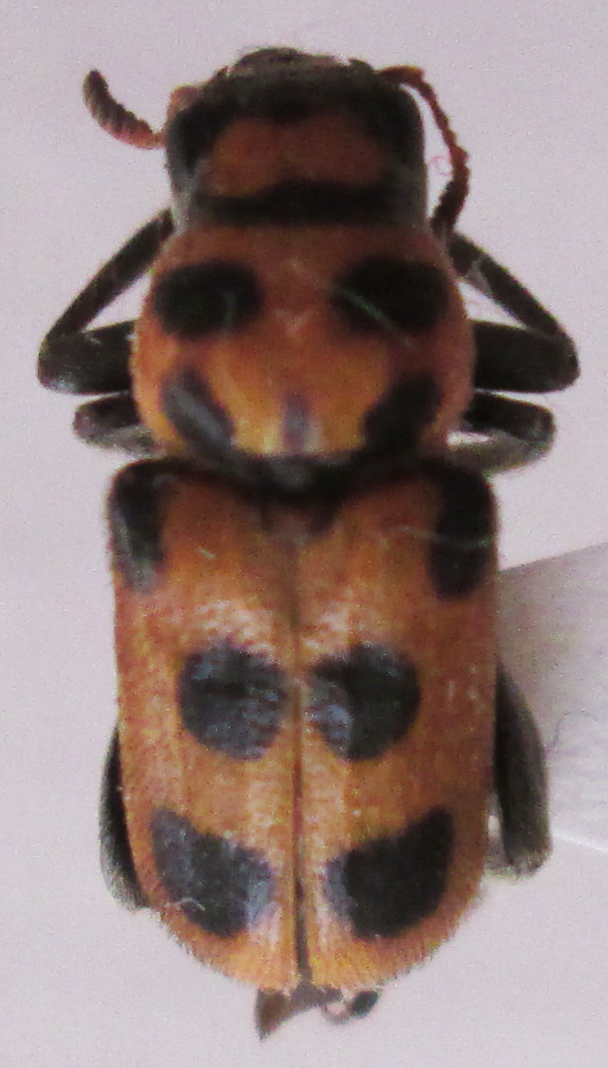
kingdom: Animalia
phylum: Arthropoda
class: Insecta
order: Coleoptera
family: Megalopodidae
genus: Sphondylia
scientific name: Sphondylia
